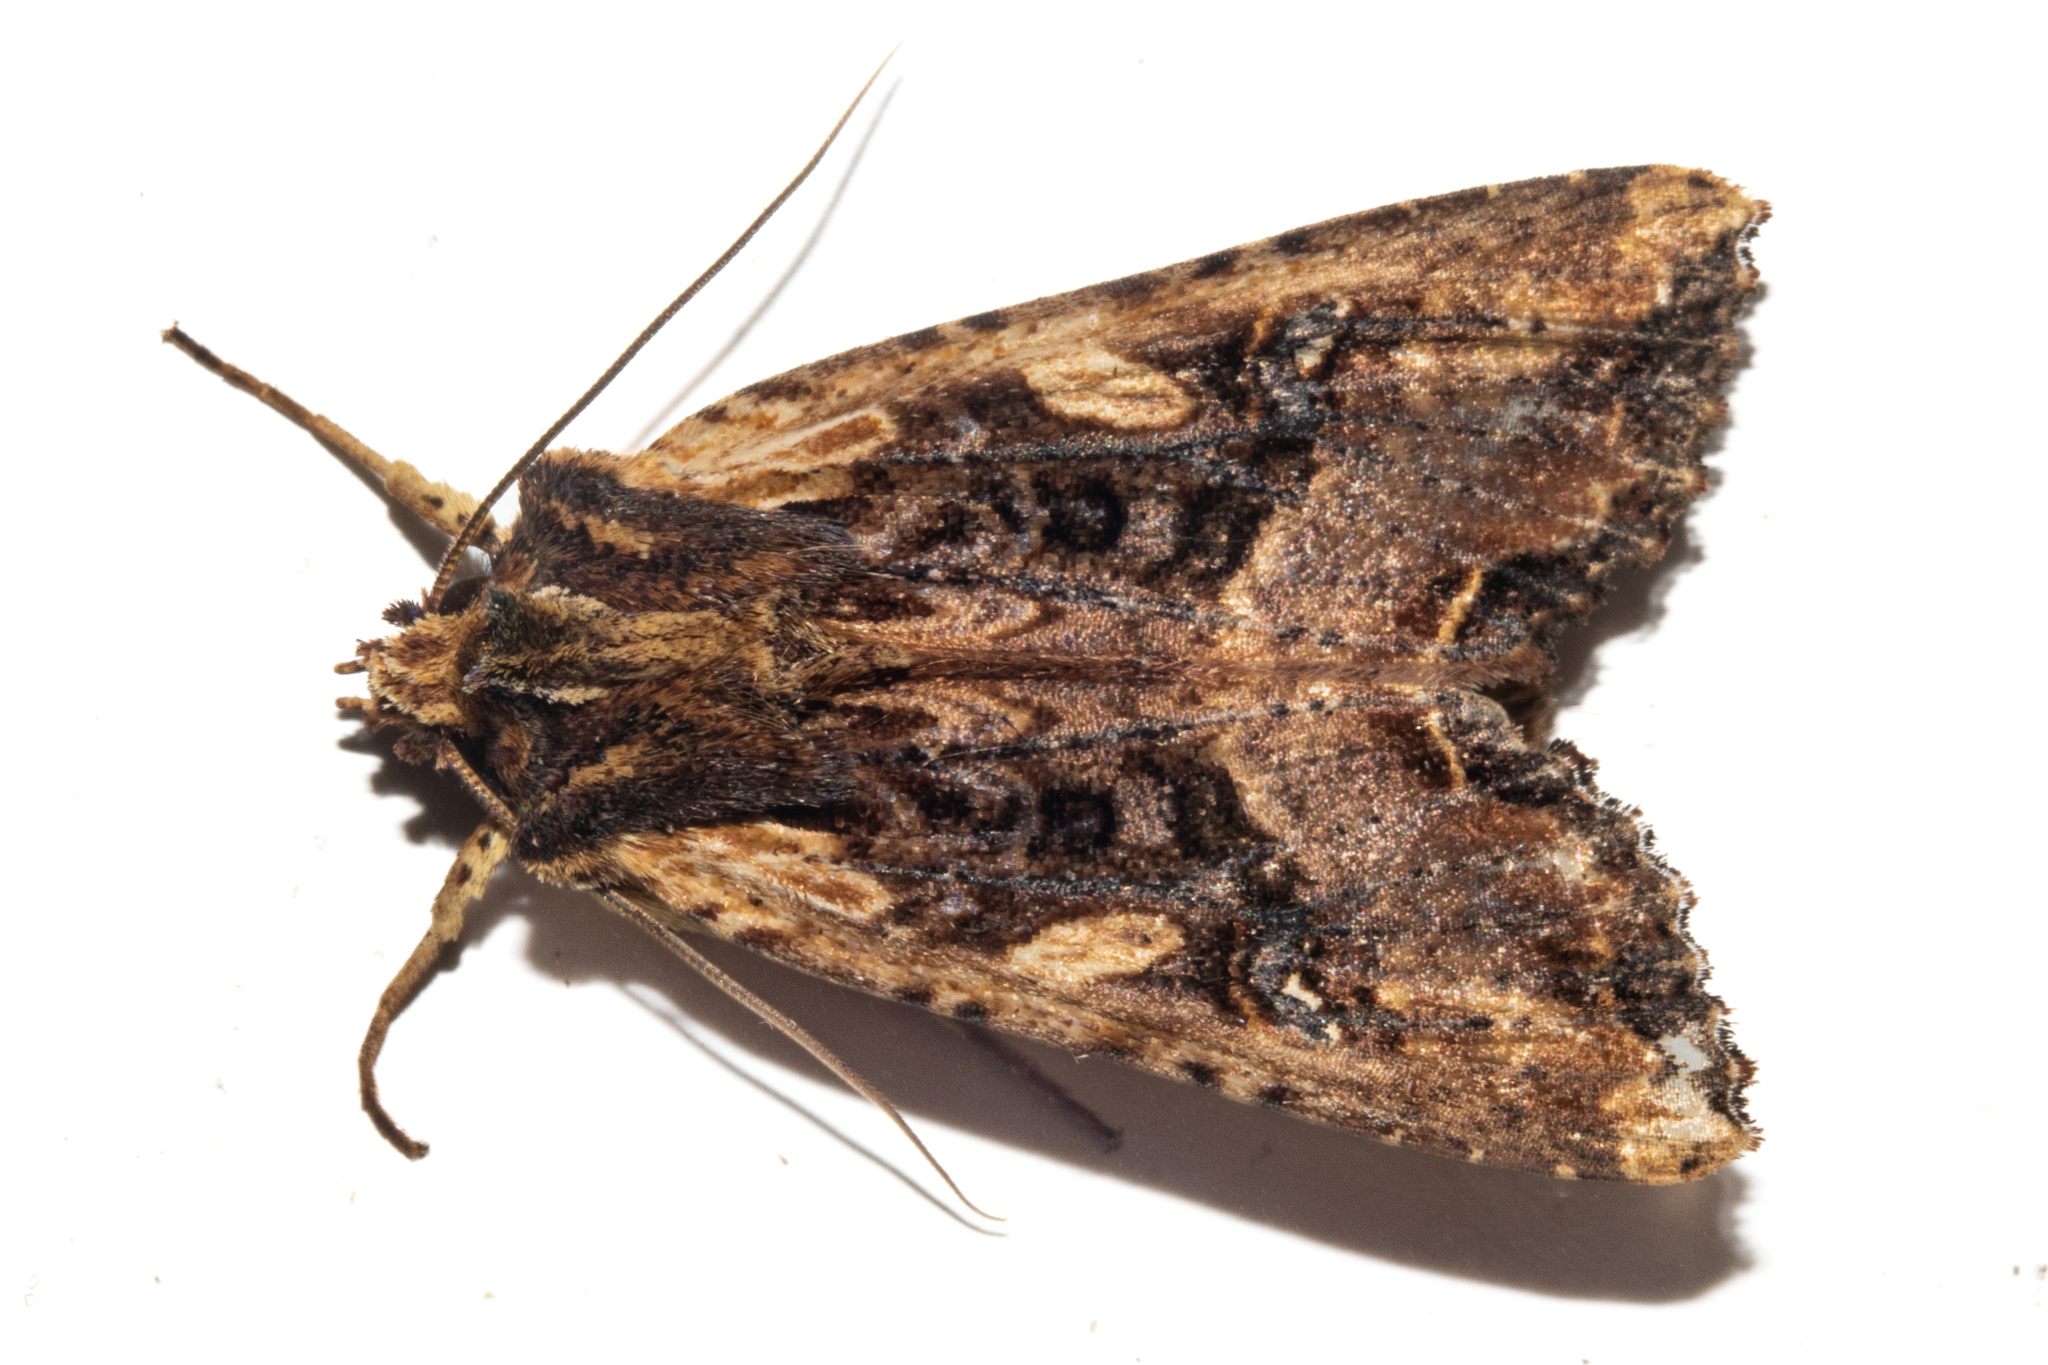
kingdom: Animalia
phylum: Arthropoda
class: Insecta
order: Lepidoptera
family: Noctuidae
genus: Meterana
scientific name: Meterana stipata
